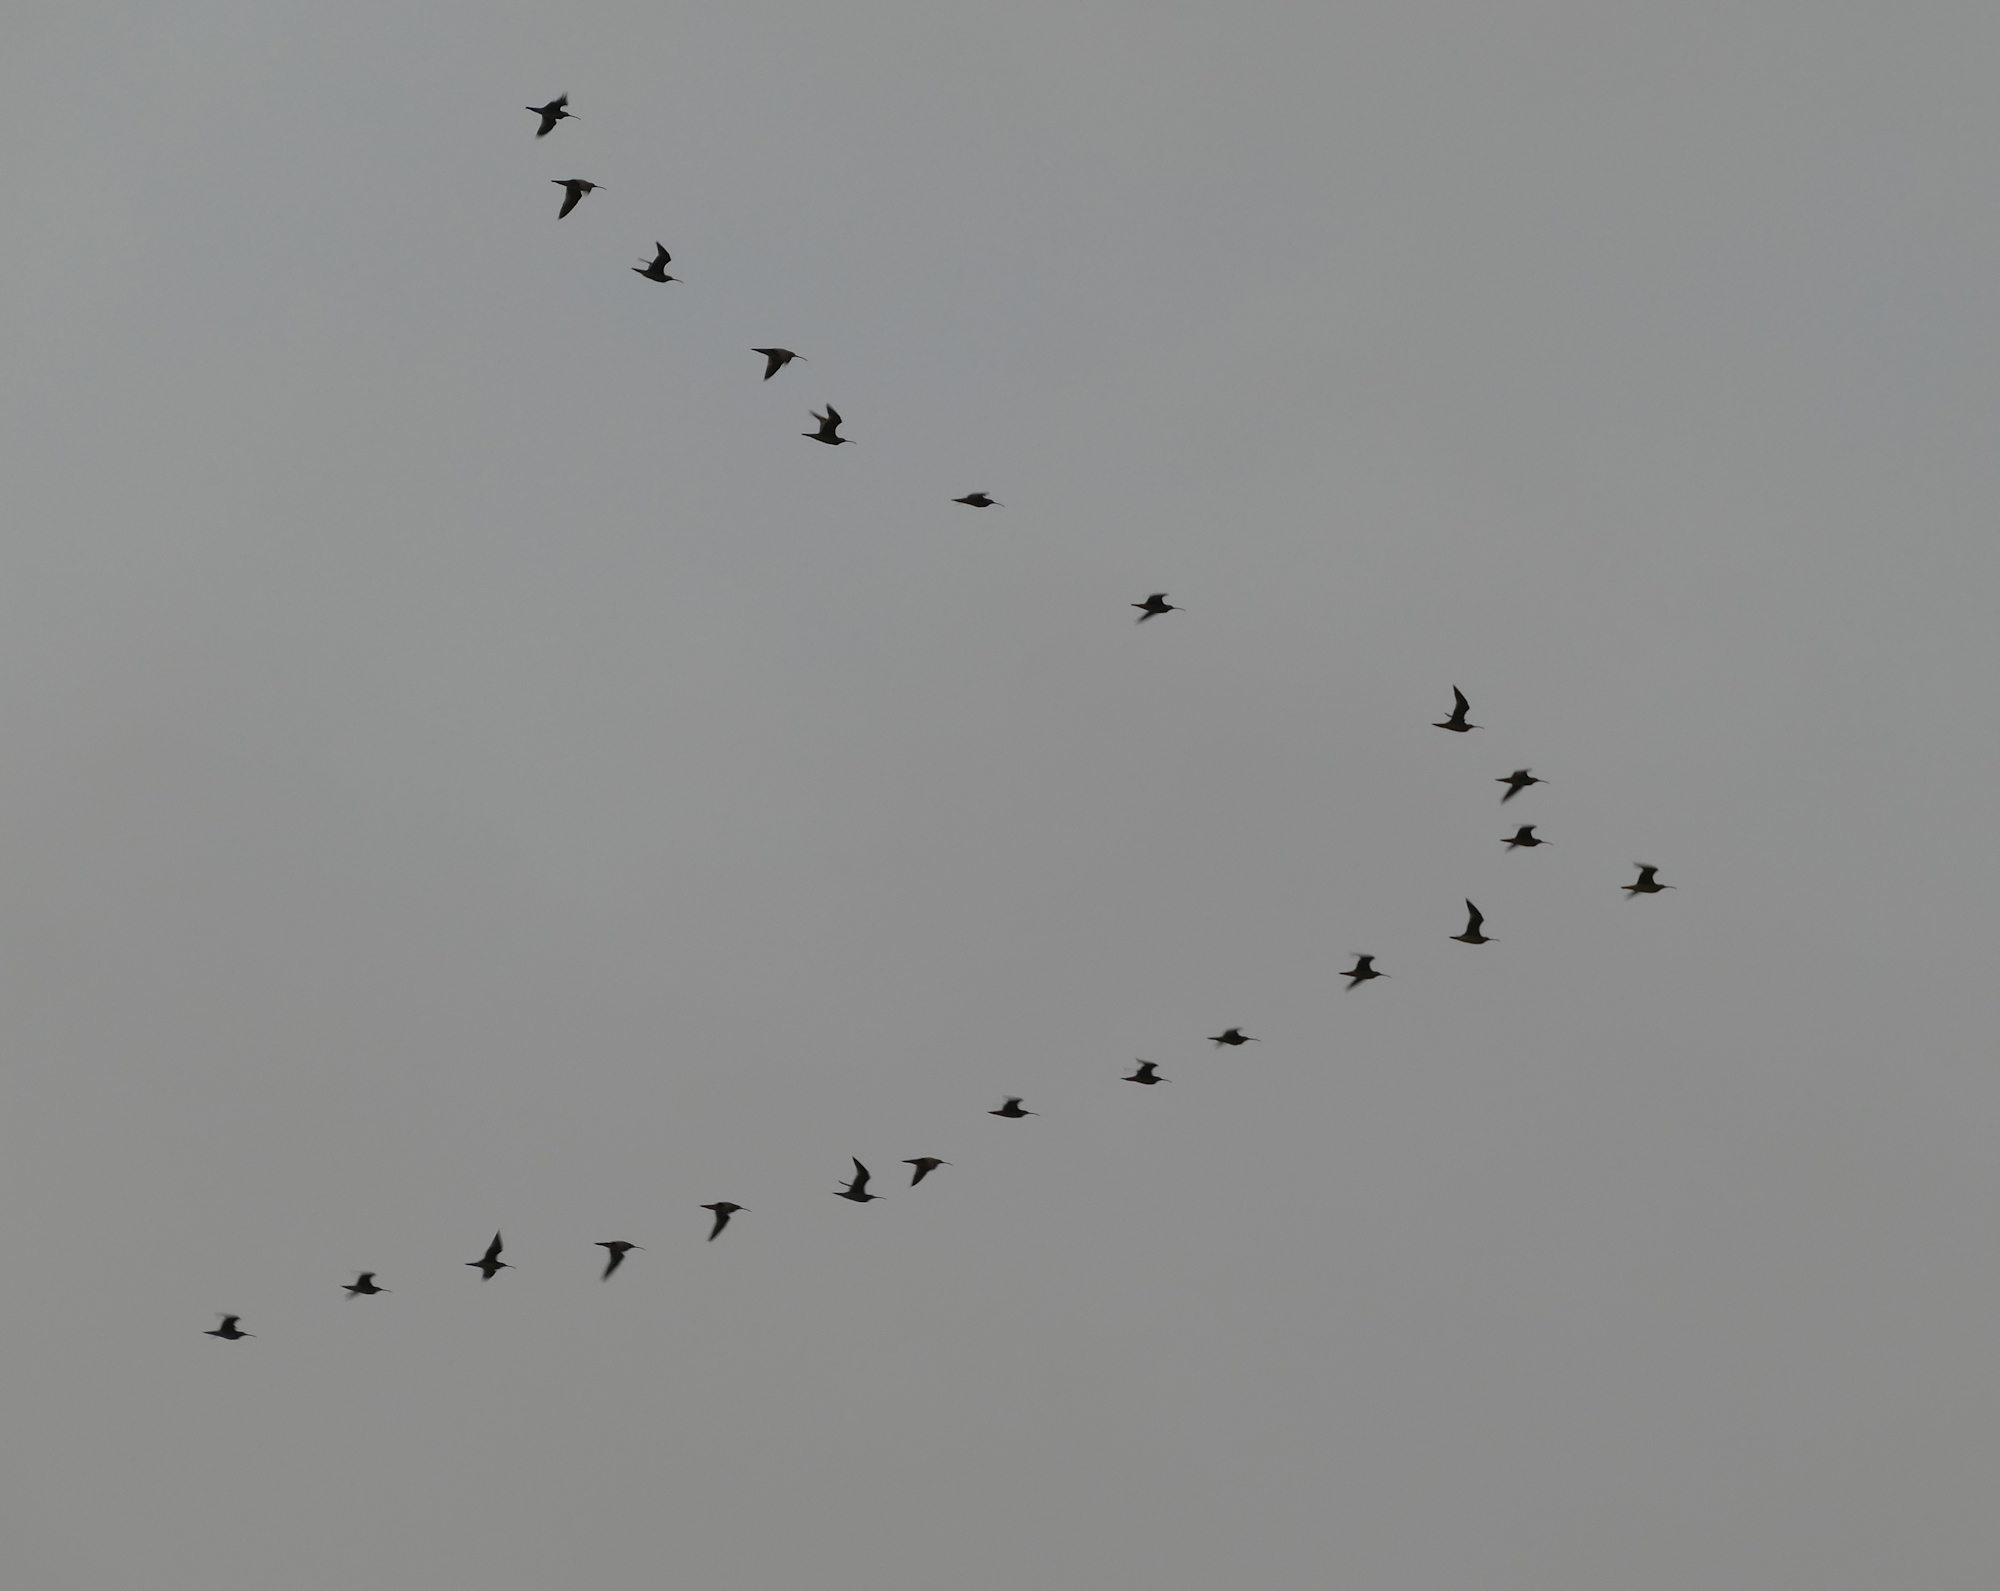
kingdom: Animalia
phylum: Chordata
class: Aves
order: Charadriiformes
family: Scolopacidae
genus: Numenius
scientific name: Numenius phaeopus
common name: Whimbrel
